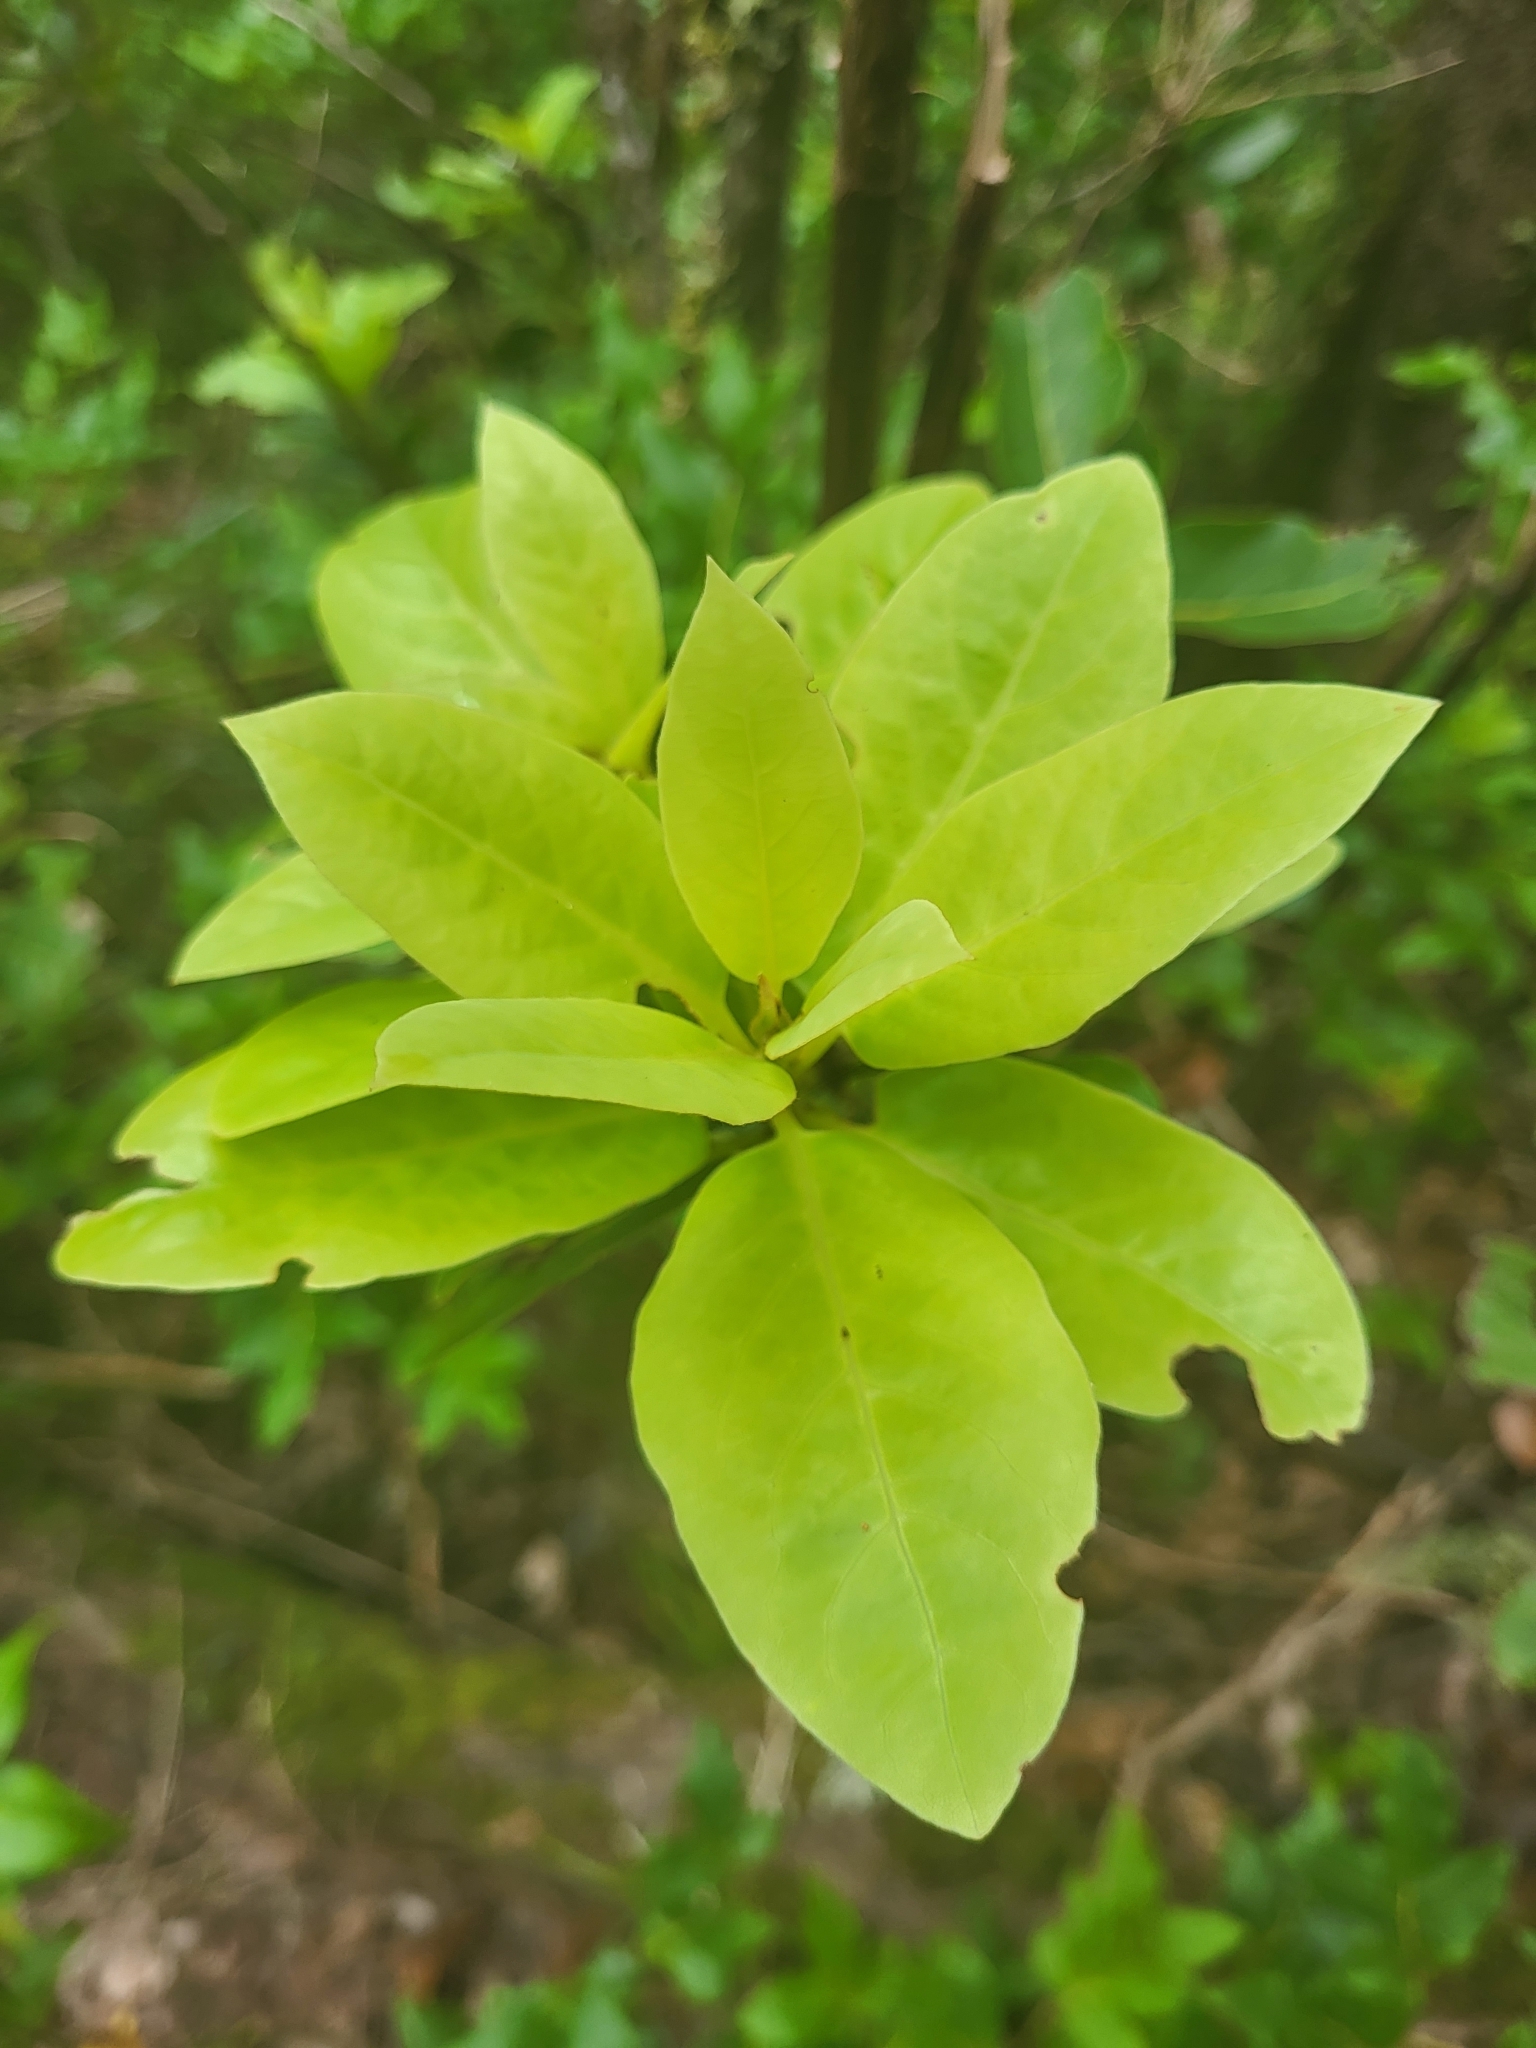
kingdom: Plantae
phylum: Tracheophyta
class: Magnoliopsida
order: Laurales
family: Lauraceae
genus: Laurus
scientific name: Laurus novocanariensis
